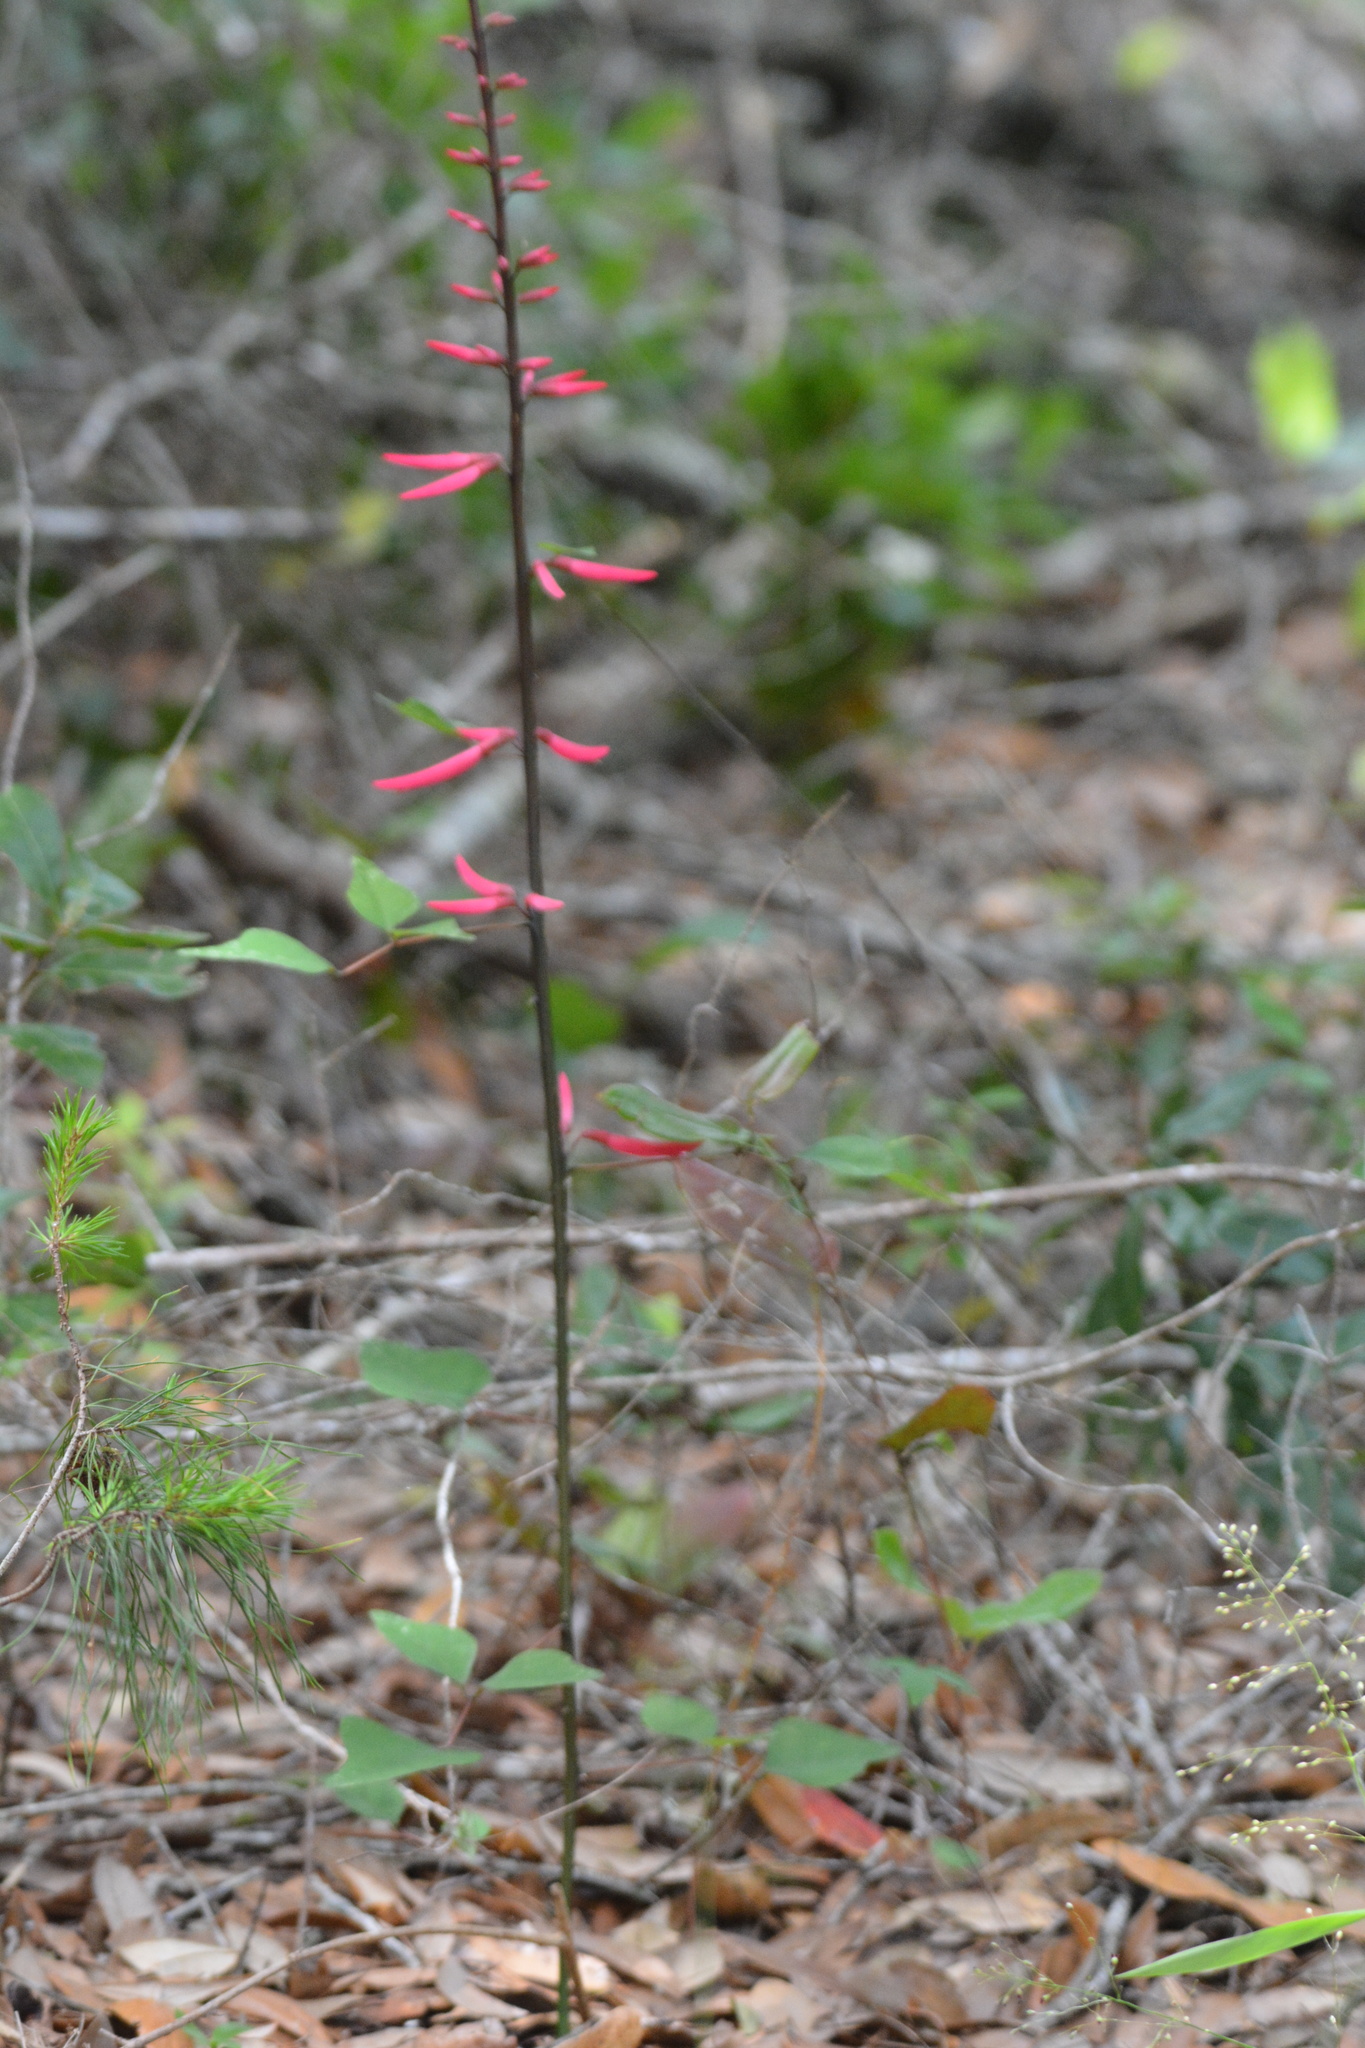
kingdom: Plantae
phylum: Tracheophyta
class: Magnoliopsida
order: Fabales
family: Fabaceae
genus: Erythrina
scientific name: Erythrina herbacea
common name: Coral-bean
